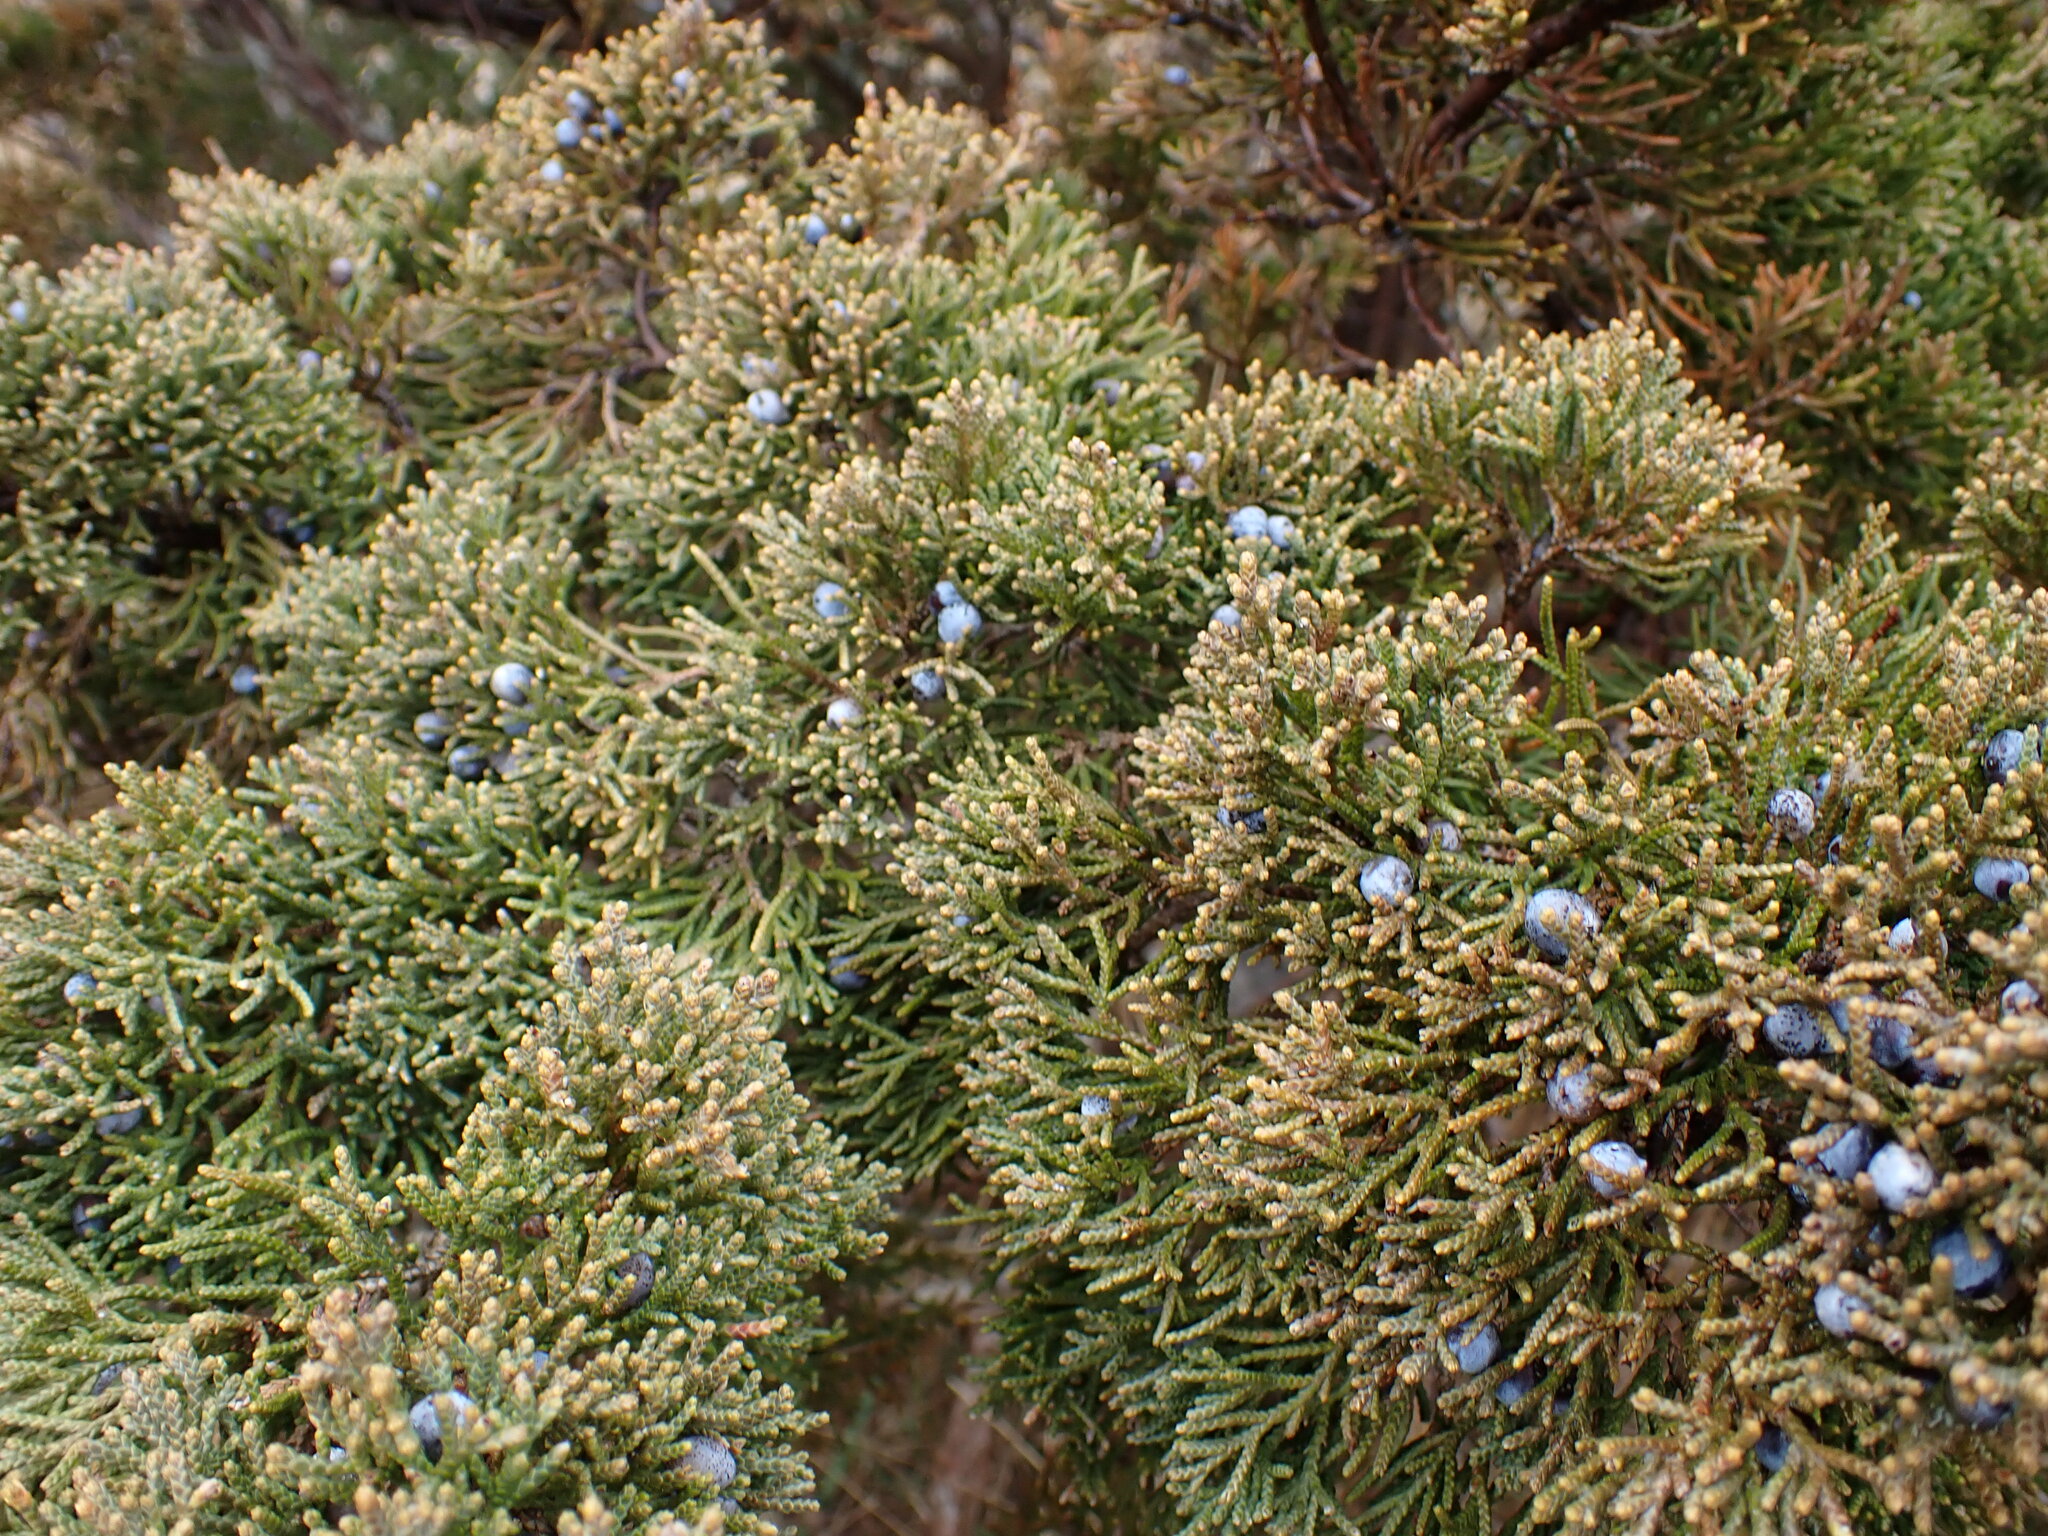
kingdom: Plantae
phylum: Tracheophyta
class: Pinopsida
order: Pinales
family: Cupressaceae
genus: Juniperus
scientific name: Juniperus virginiana
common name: Red juniper
